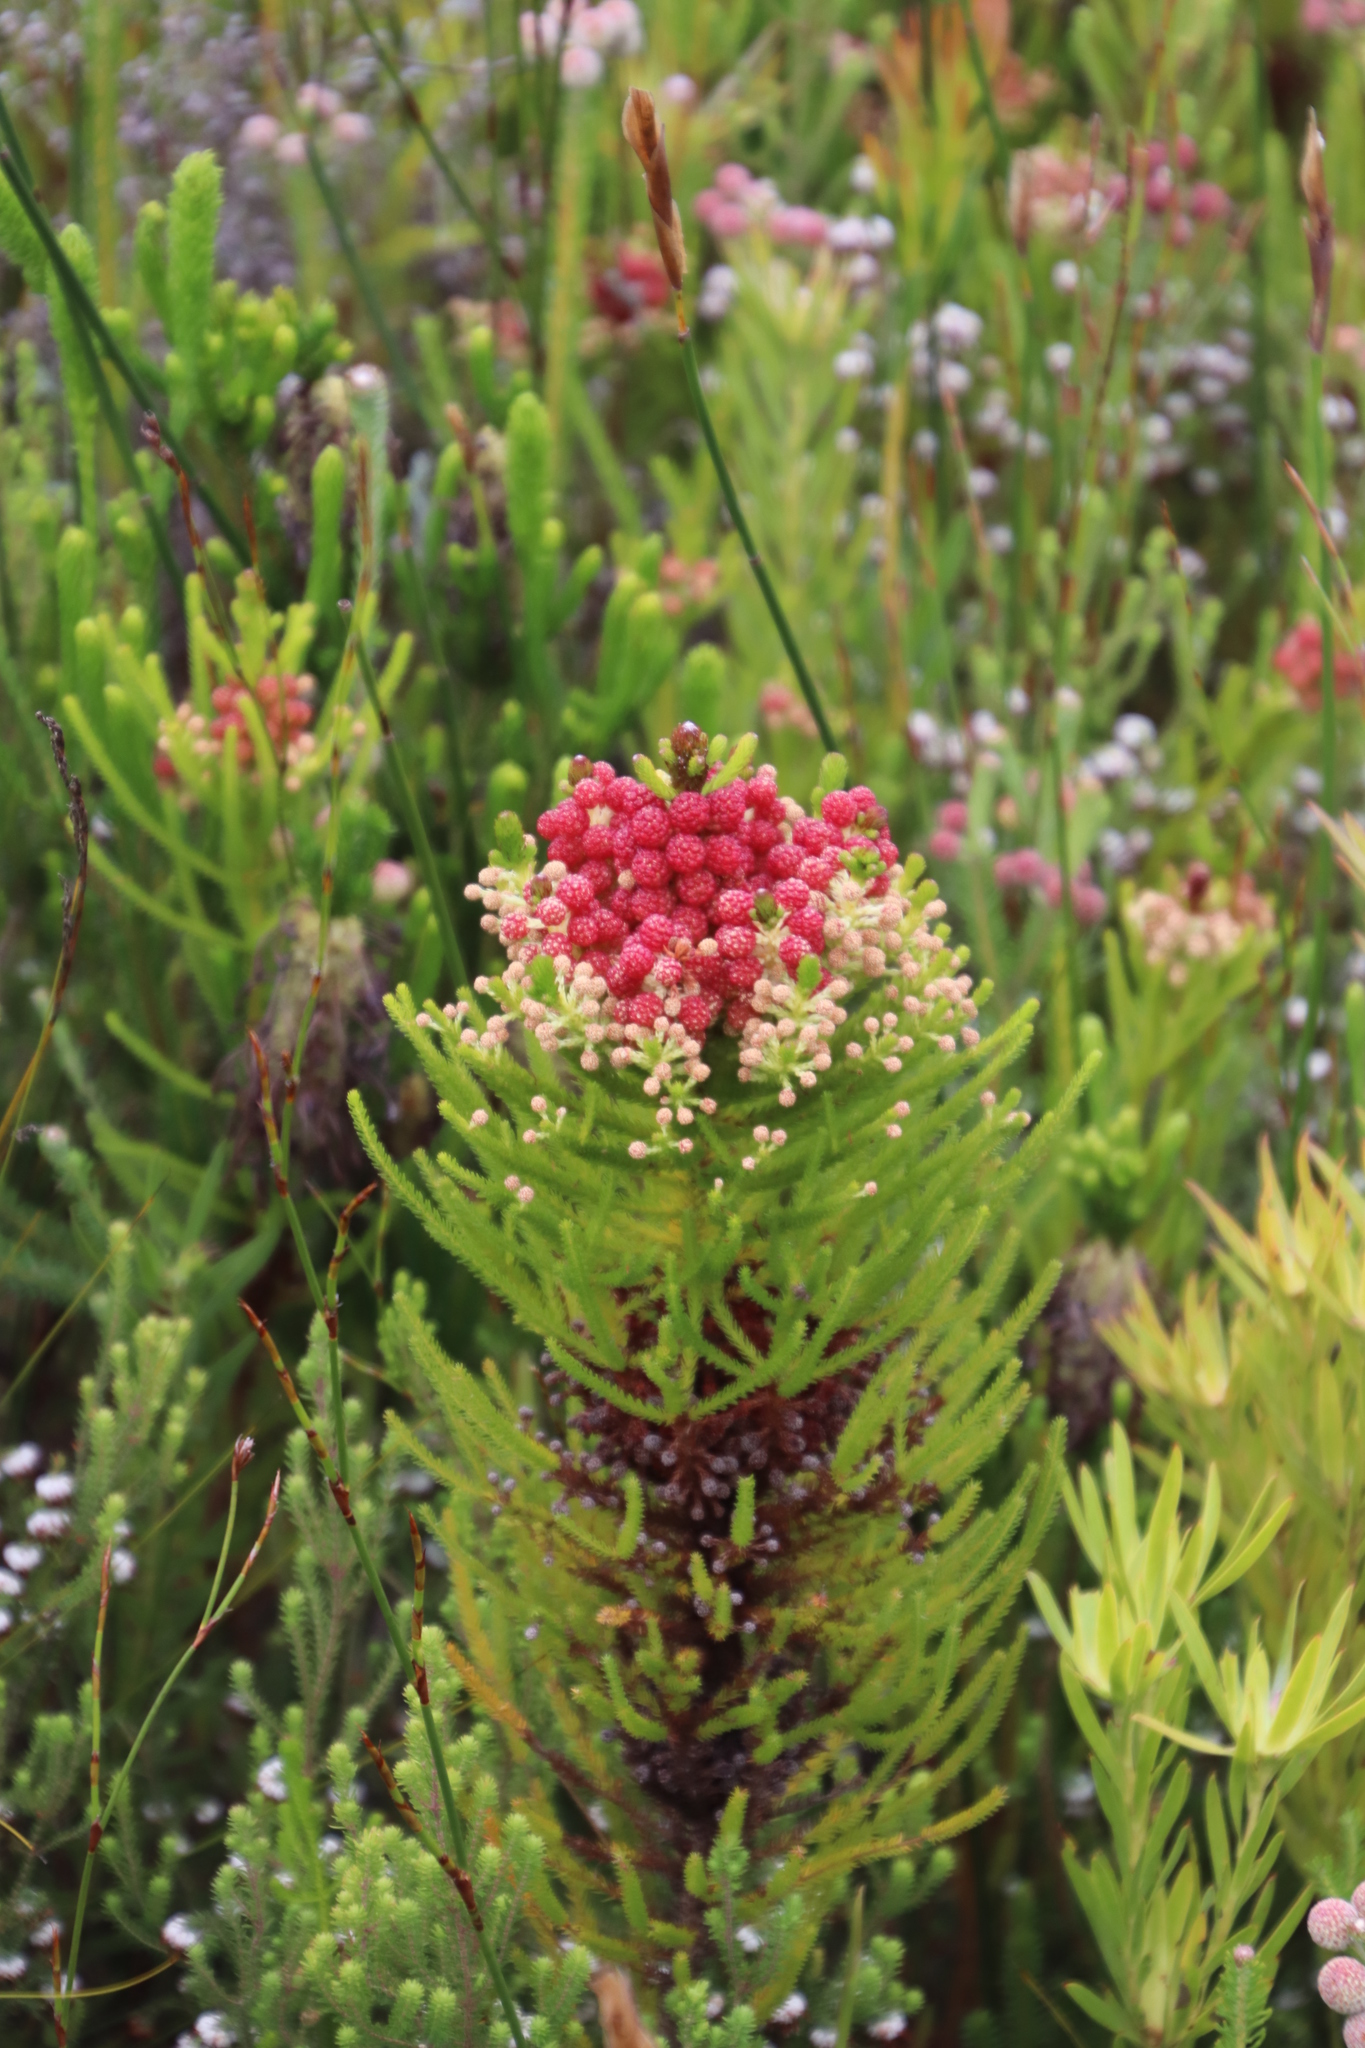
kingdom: Plantae
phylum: Tracheophyta
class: Magnoliopsida
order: Bruniales
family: Bruniaceae
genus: Berzelia
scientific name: Berzelia alopecurioides
